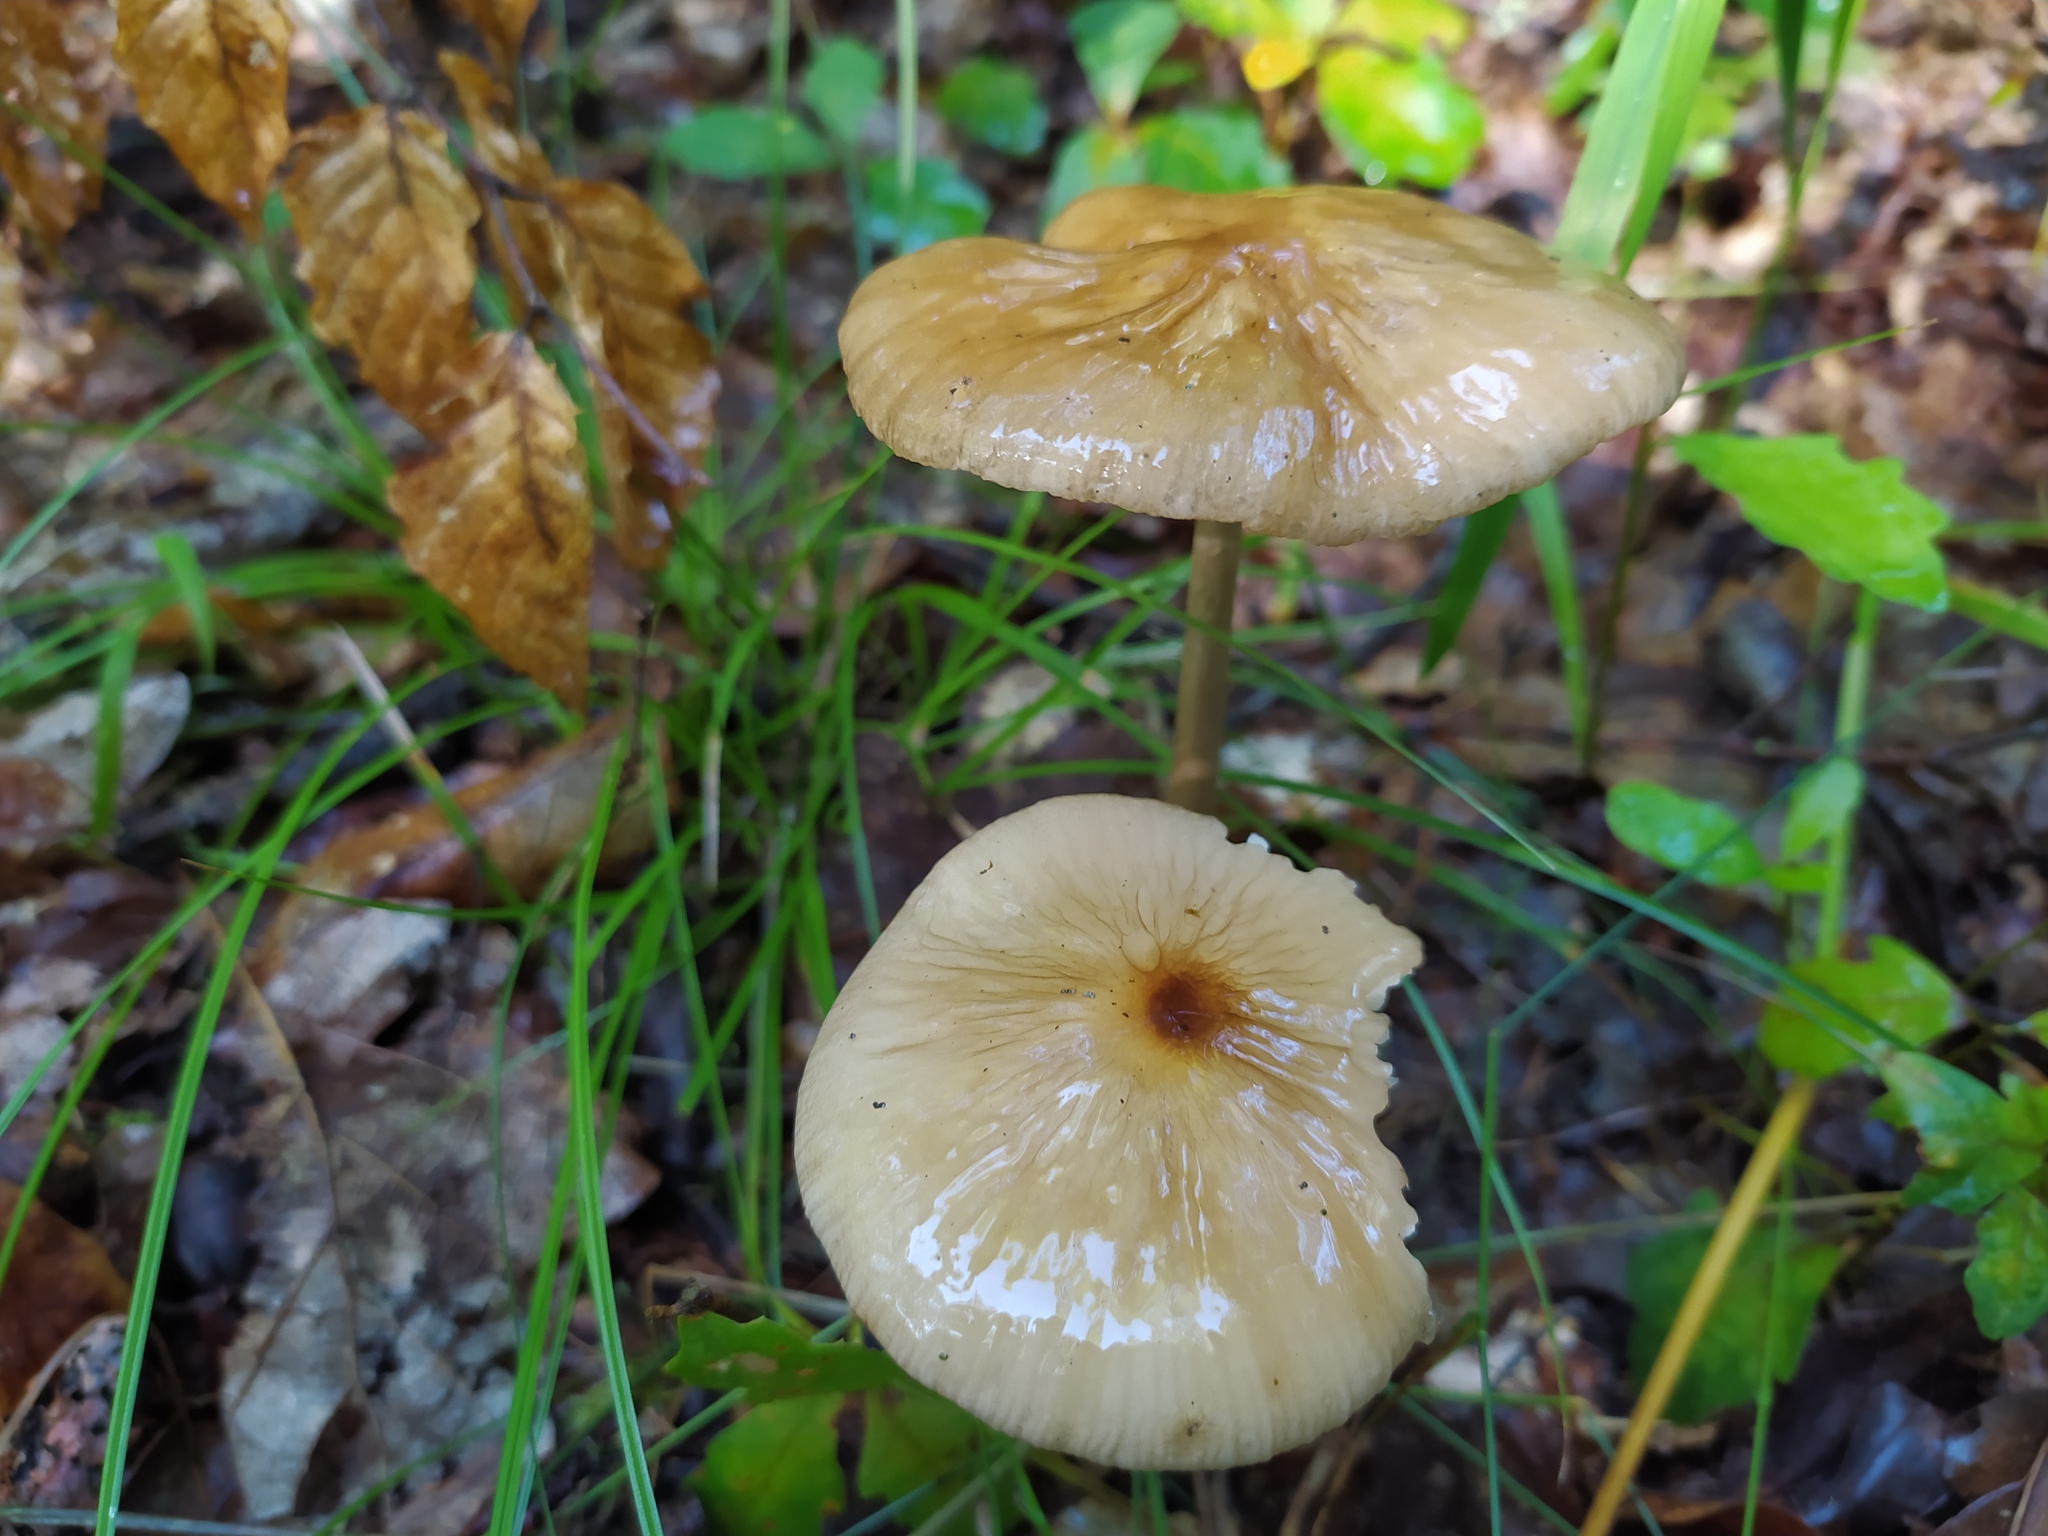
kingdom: Fungi
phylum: Basidiomycota
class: Agaricomycetes
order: Agaricales
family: Physalacriaceae
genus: Hymenopellis
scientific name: Hymenopellis radicata
